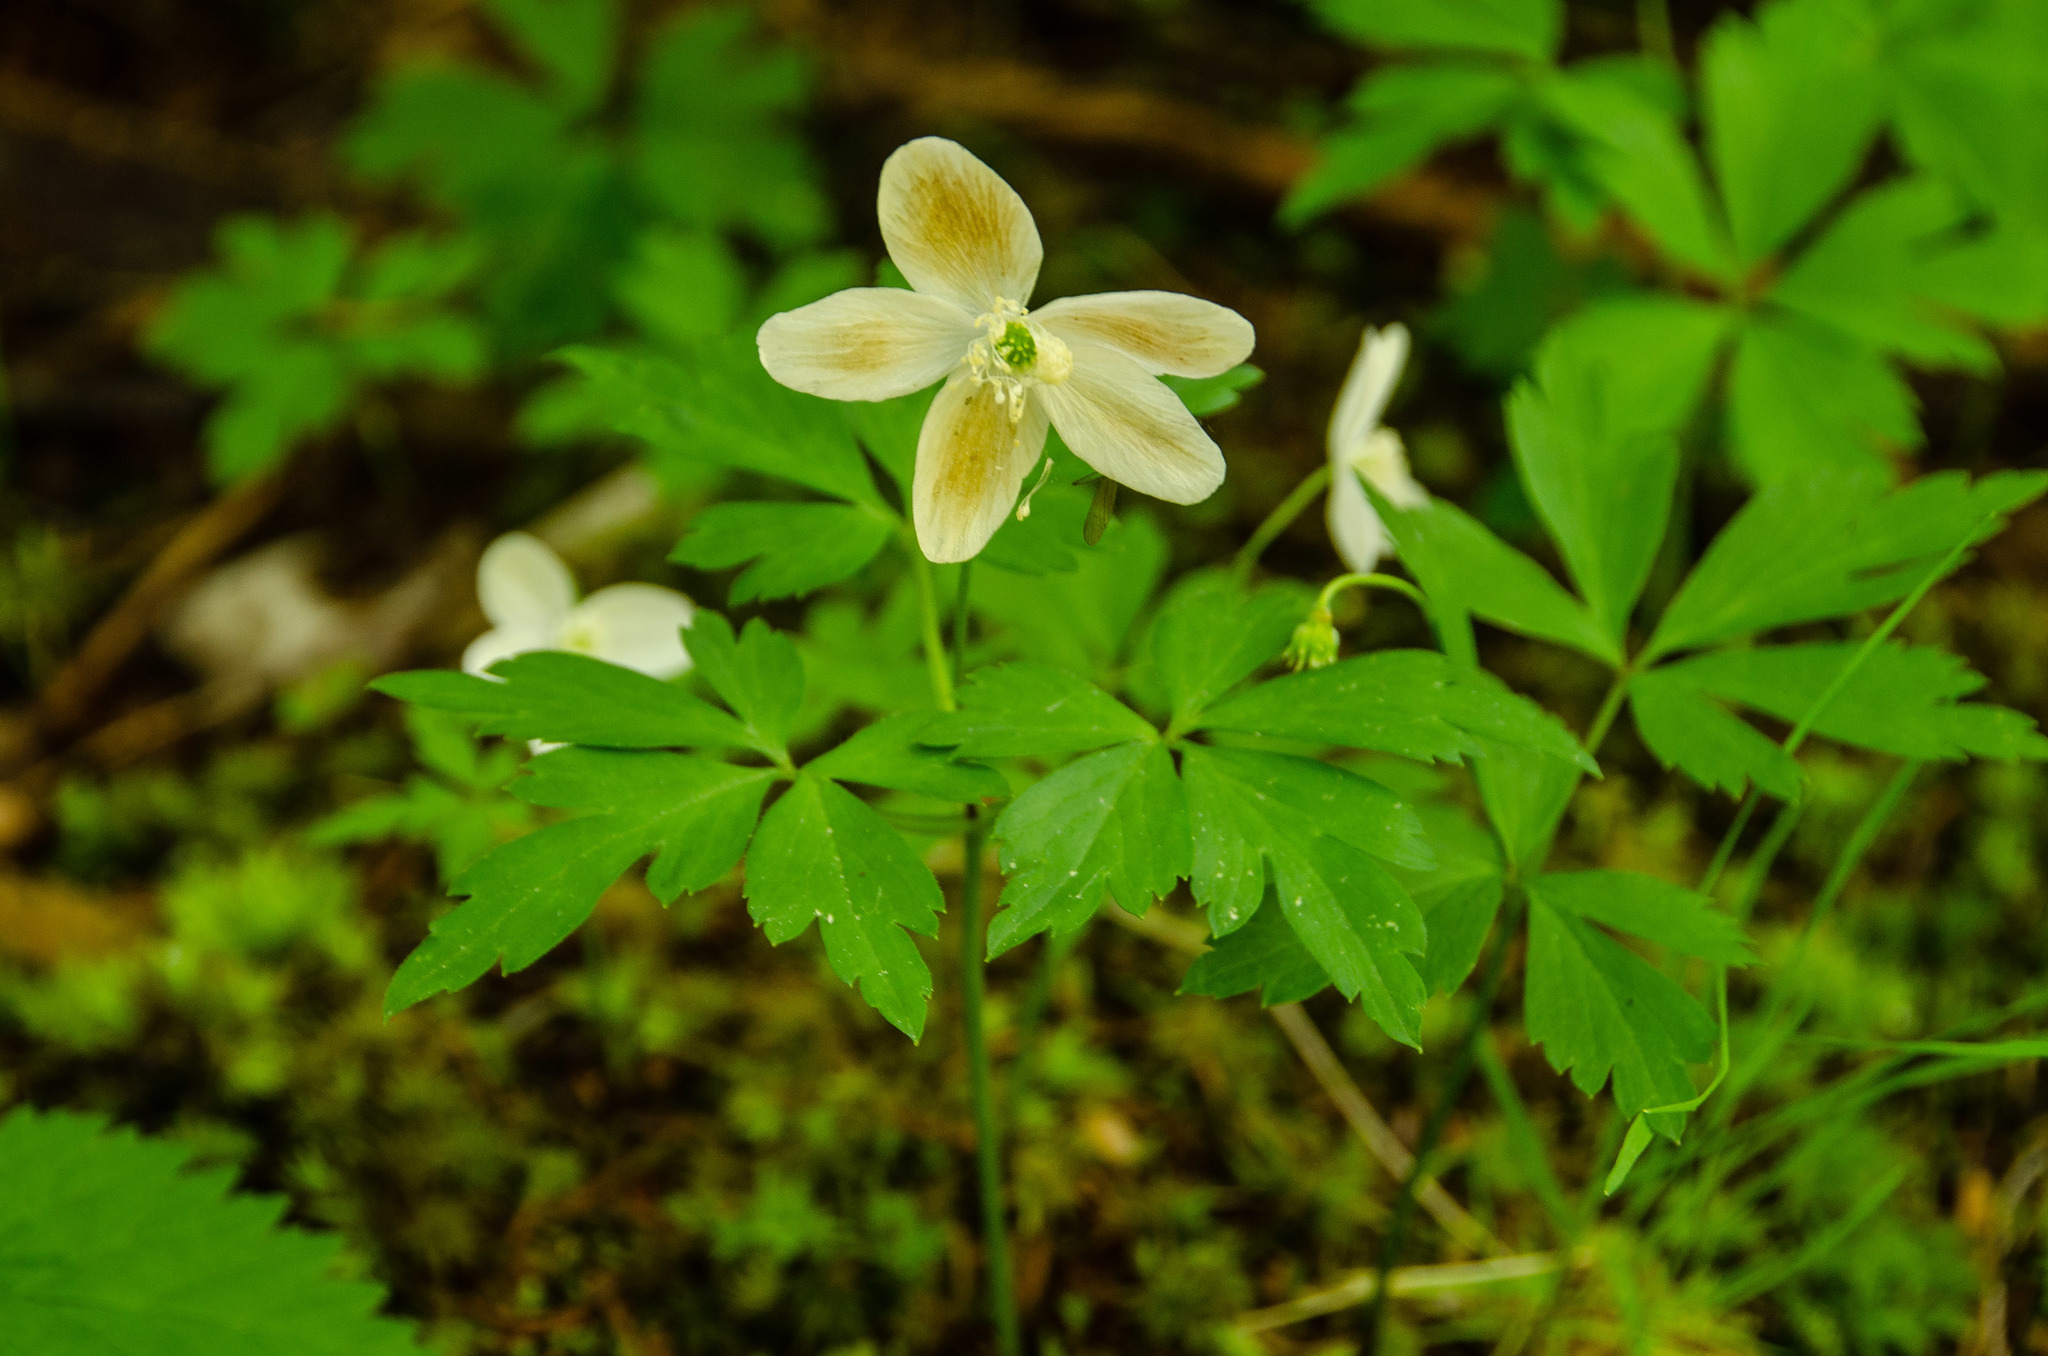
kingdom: Plantae
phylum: Tracheophyta
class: Magnoliopsida
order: Ranunculales
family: Ranunculaceae
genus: Anemone
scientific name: Anemone quinquefolia
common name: Wood anemone
